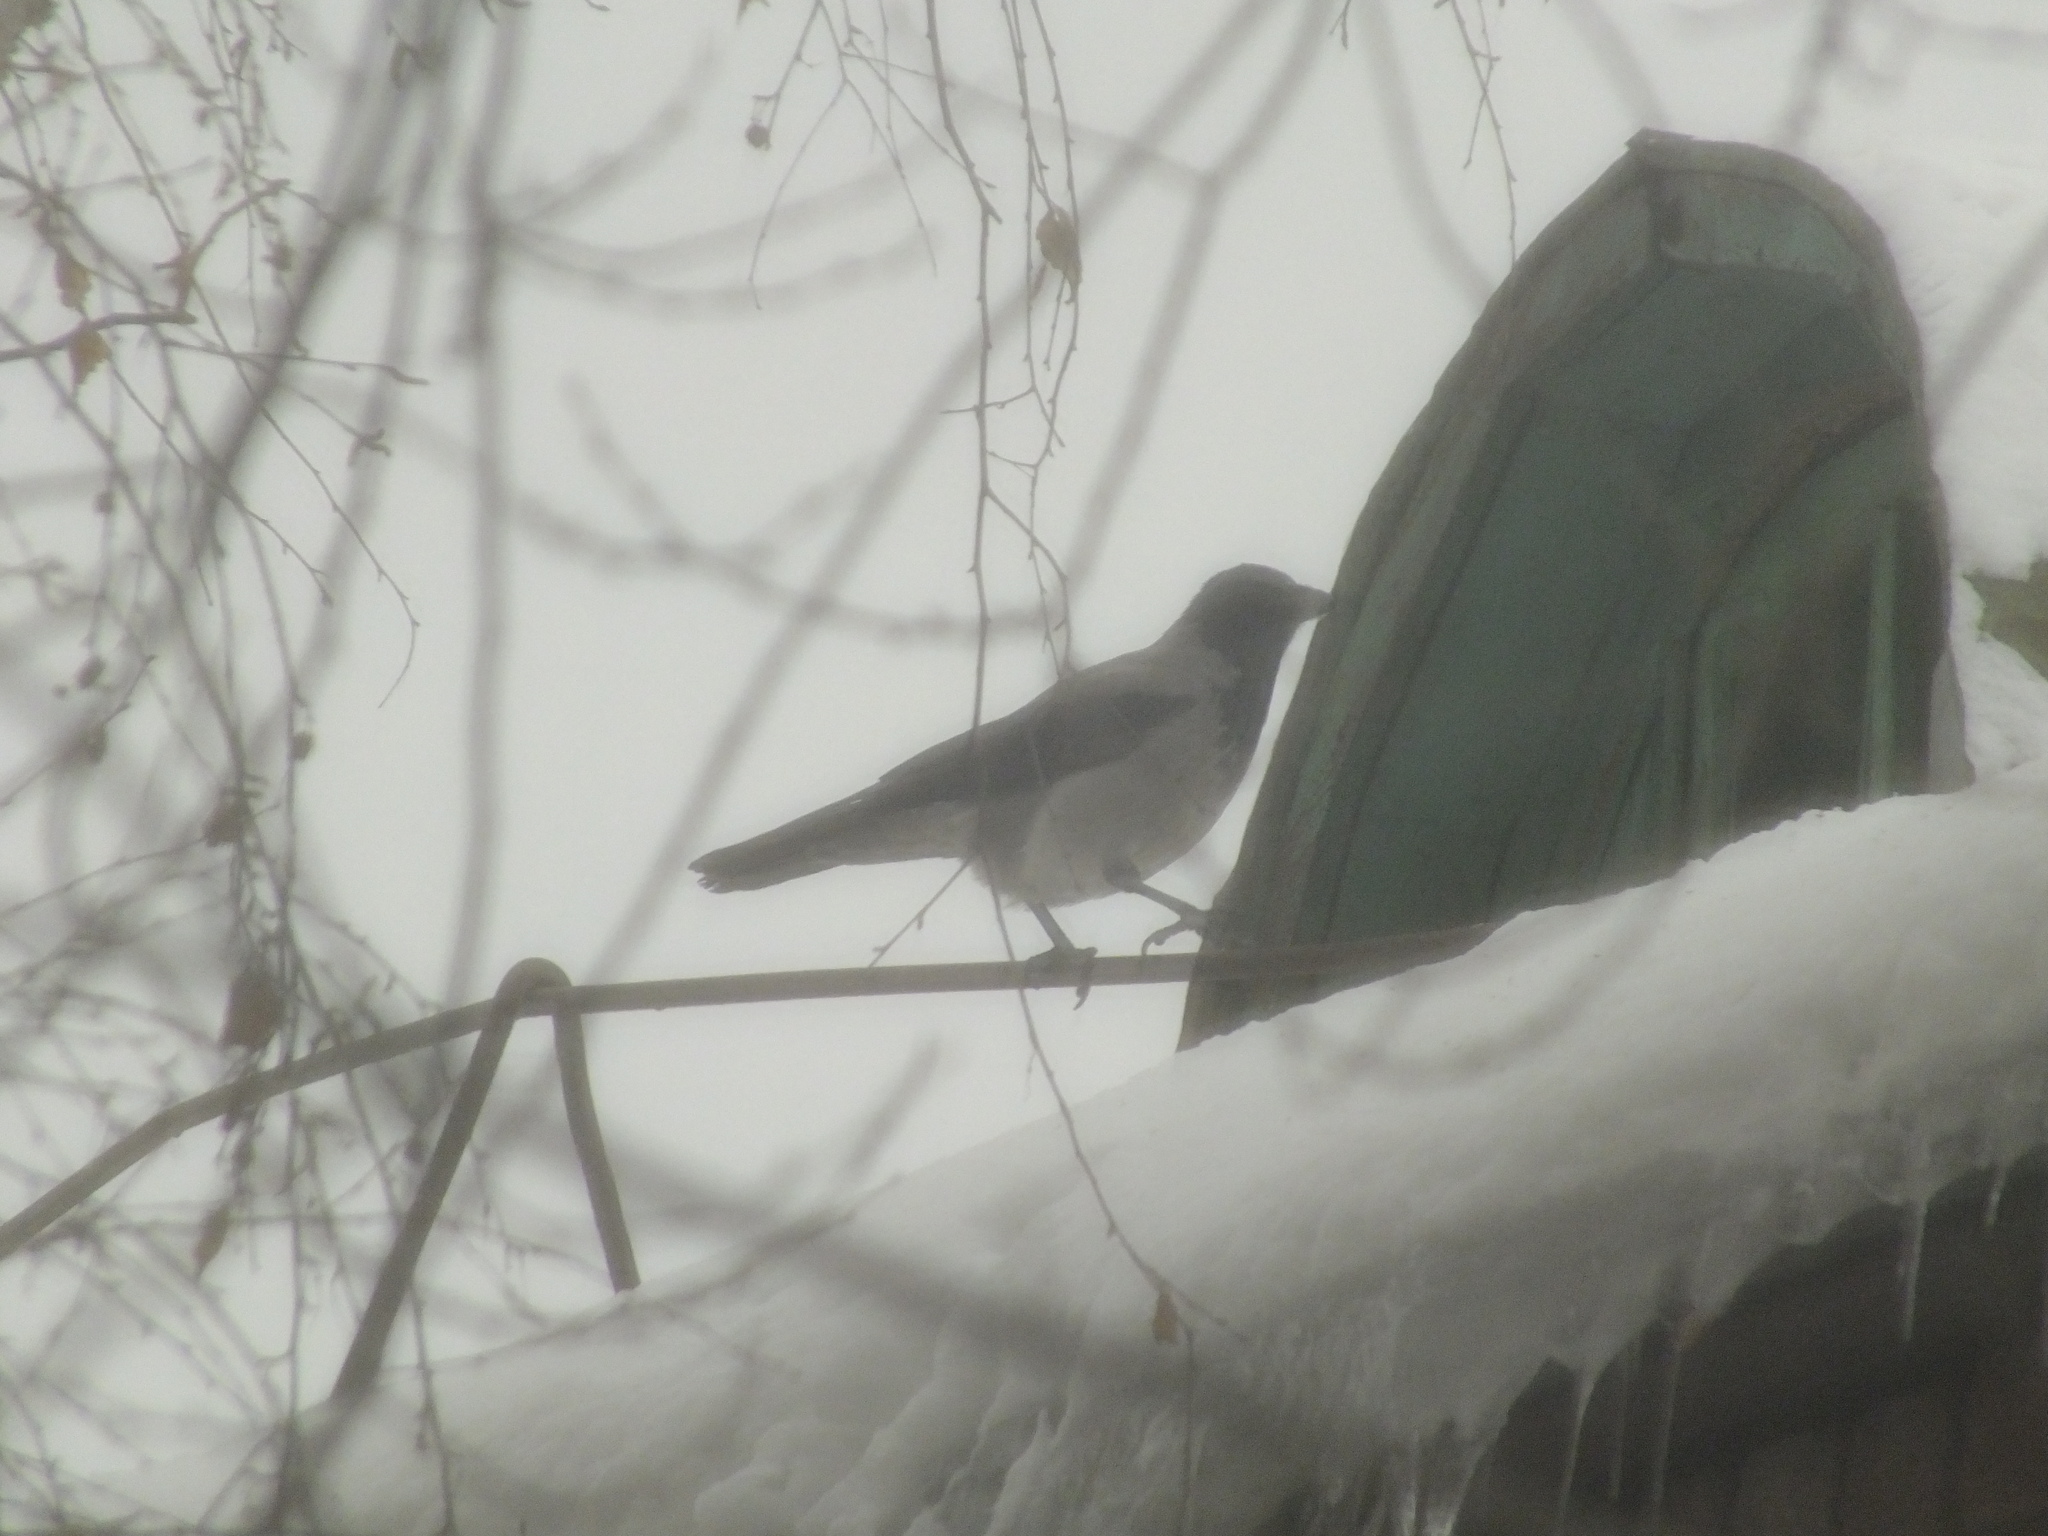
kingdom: Animalia
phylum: Chordata
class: Aves
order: Passeriformes
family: Corvidae
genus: Corvus
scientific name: Corvus cornix
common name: Hooded crow
